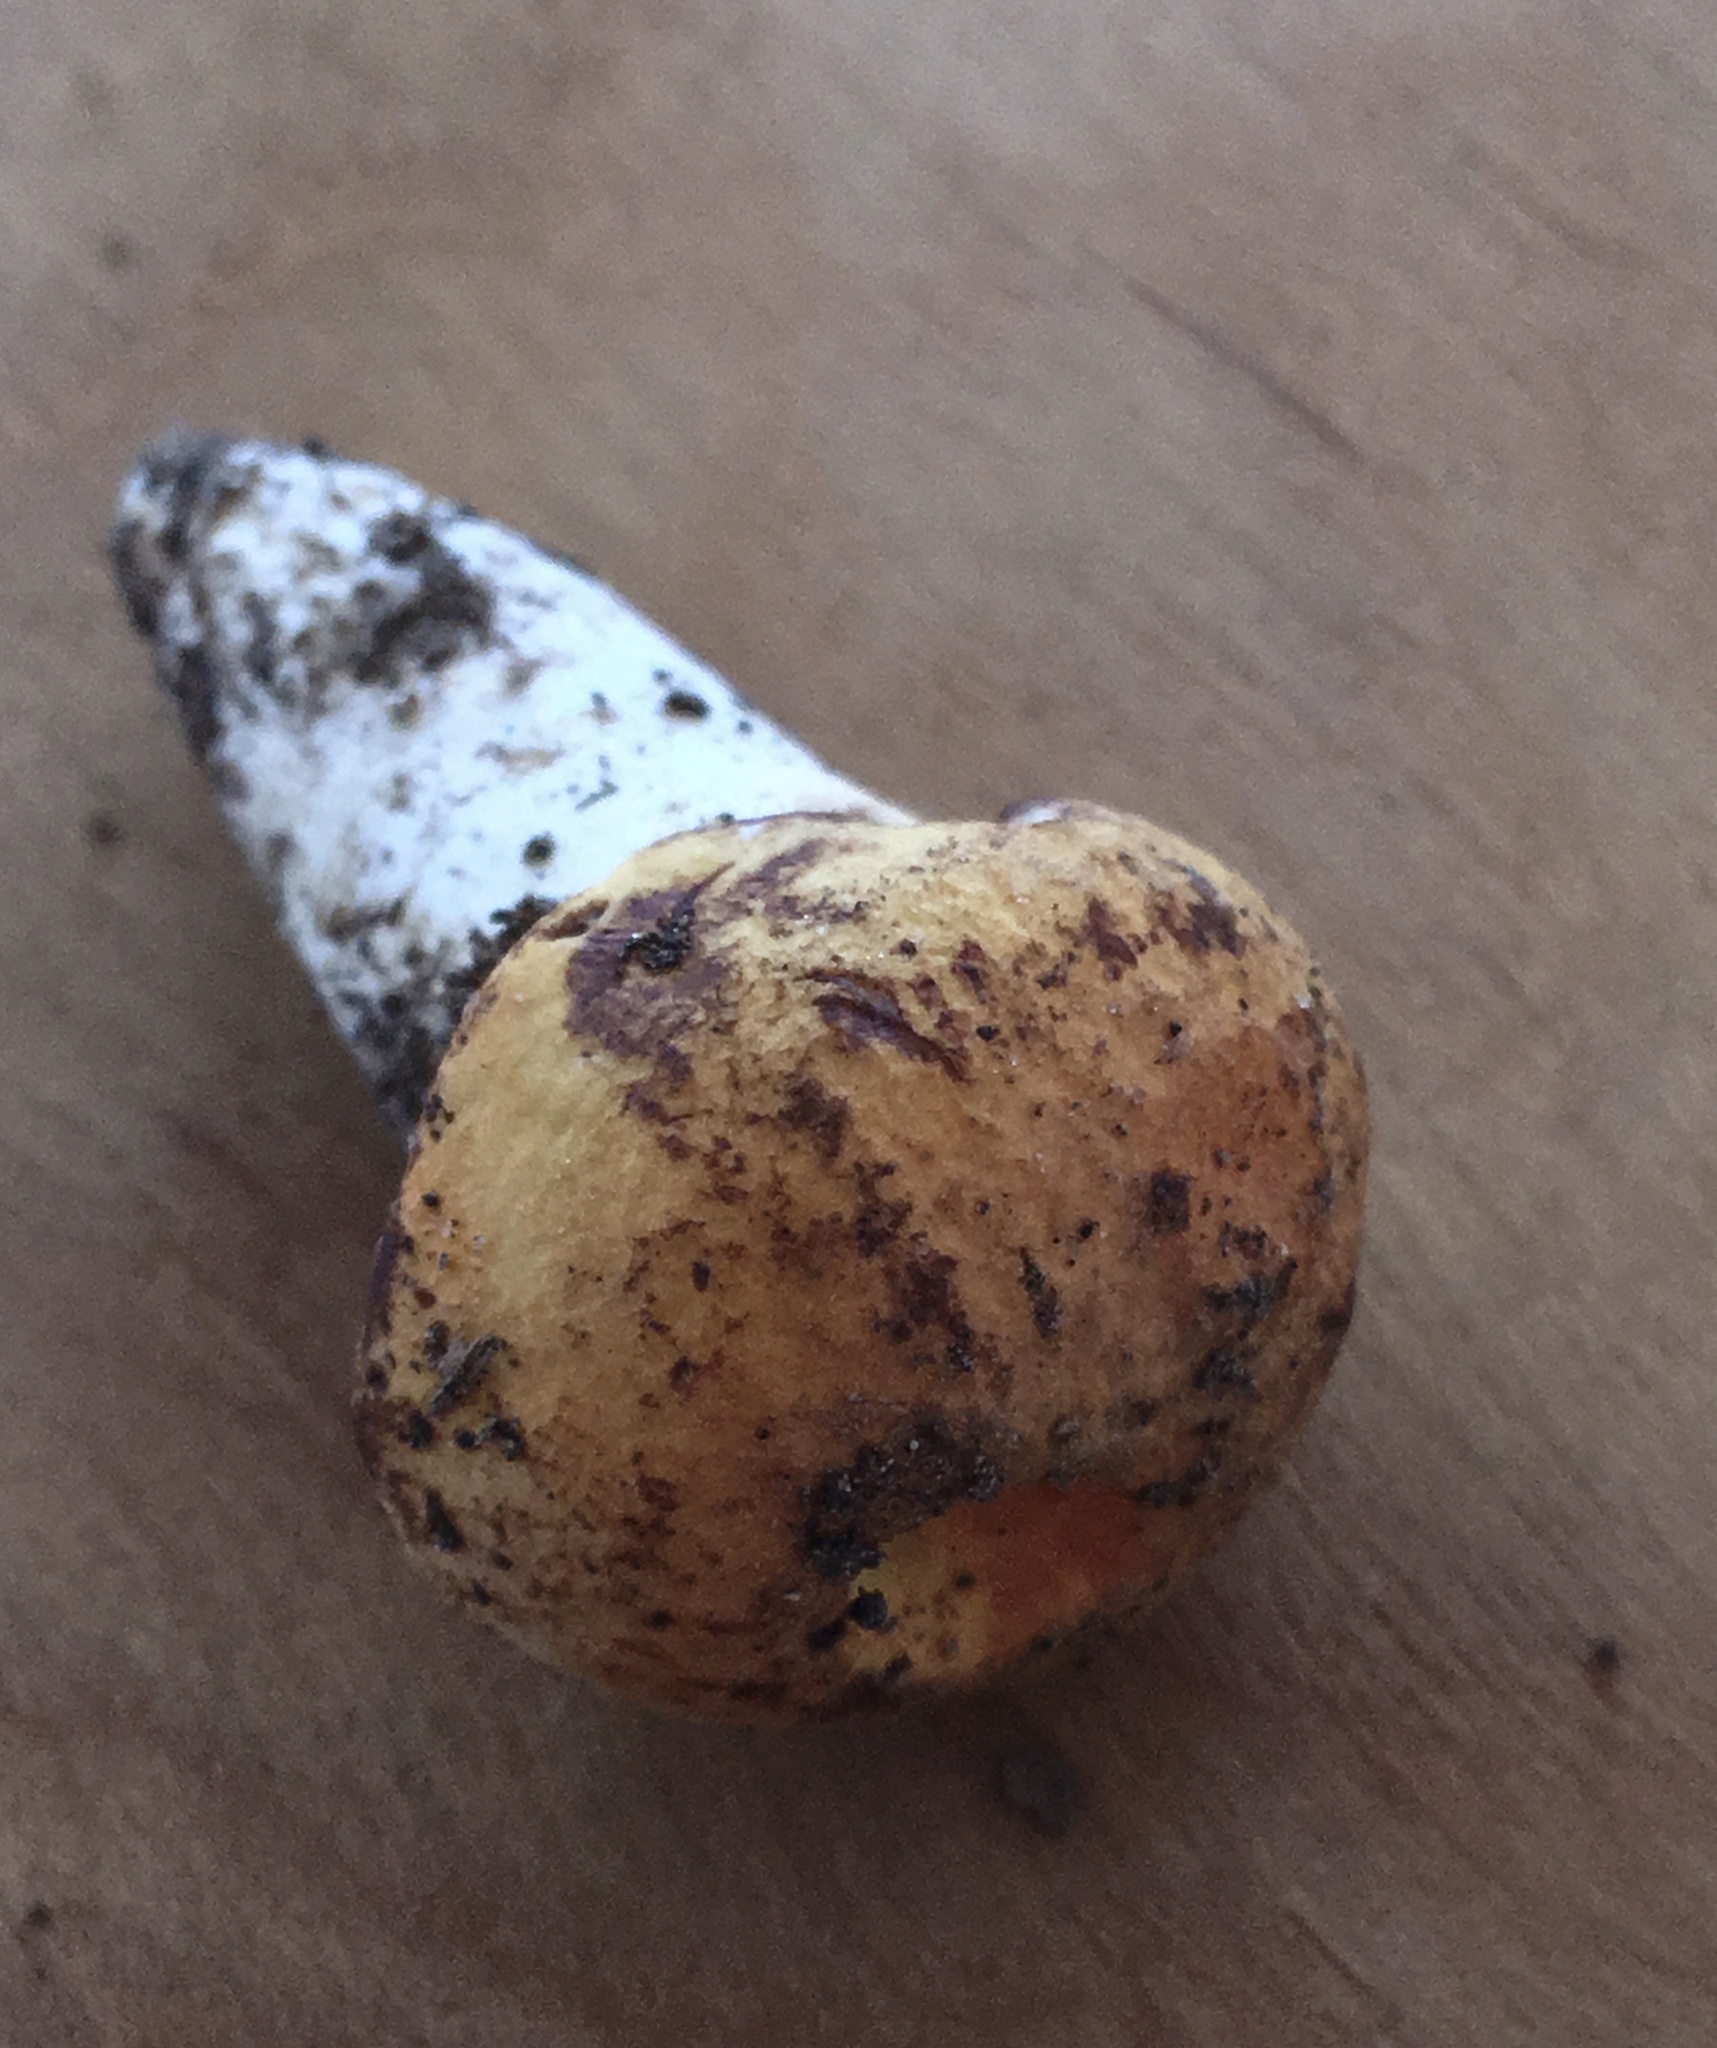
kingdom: Fungi
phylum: Basidiomycota
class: Agaricomycetes
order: Boletales
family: Boletaceae
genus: Tylopilus
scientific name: Tylopilus balloui
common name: Burnt-orange bolete
